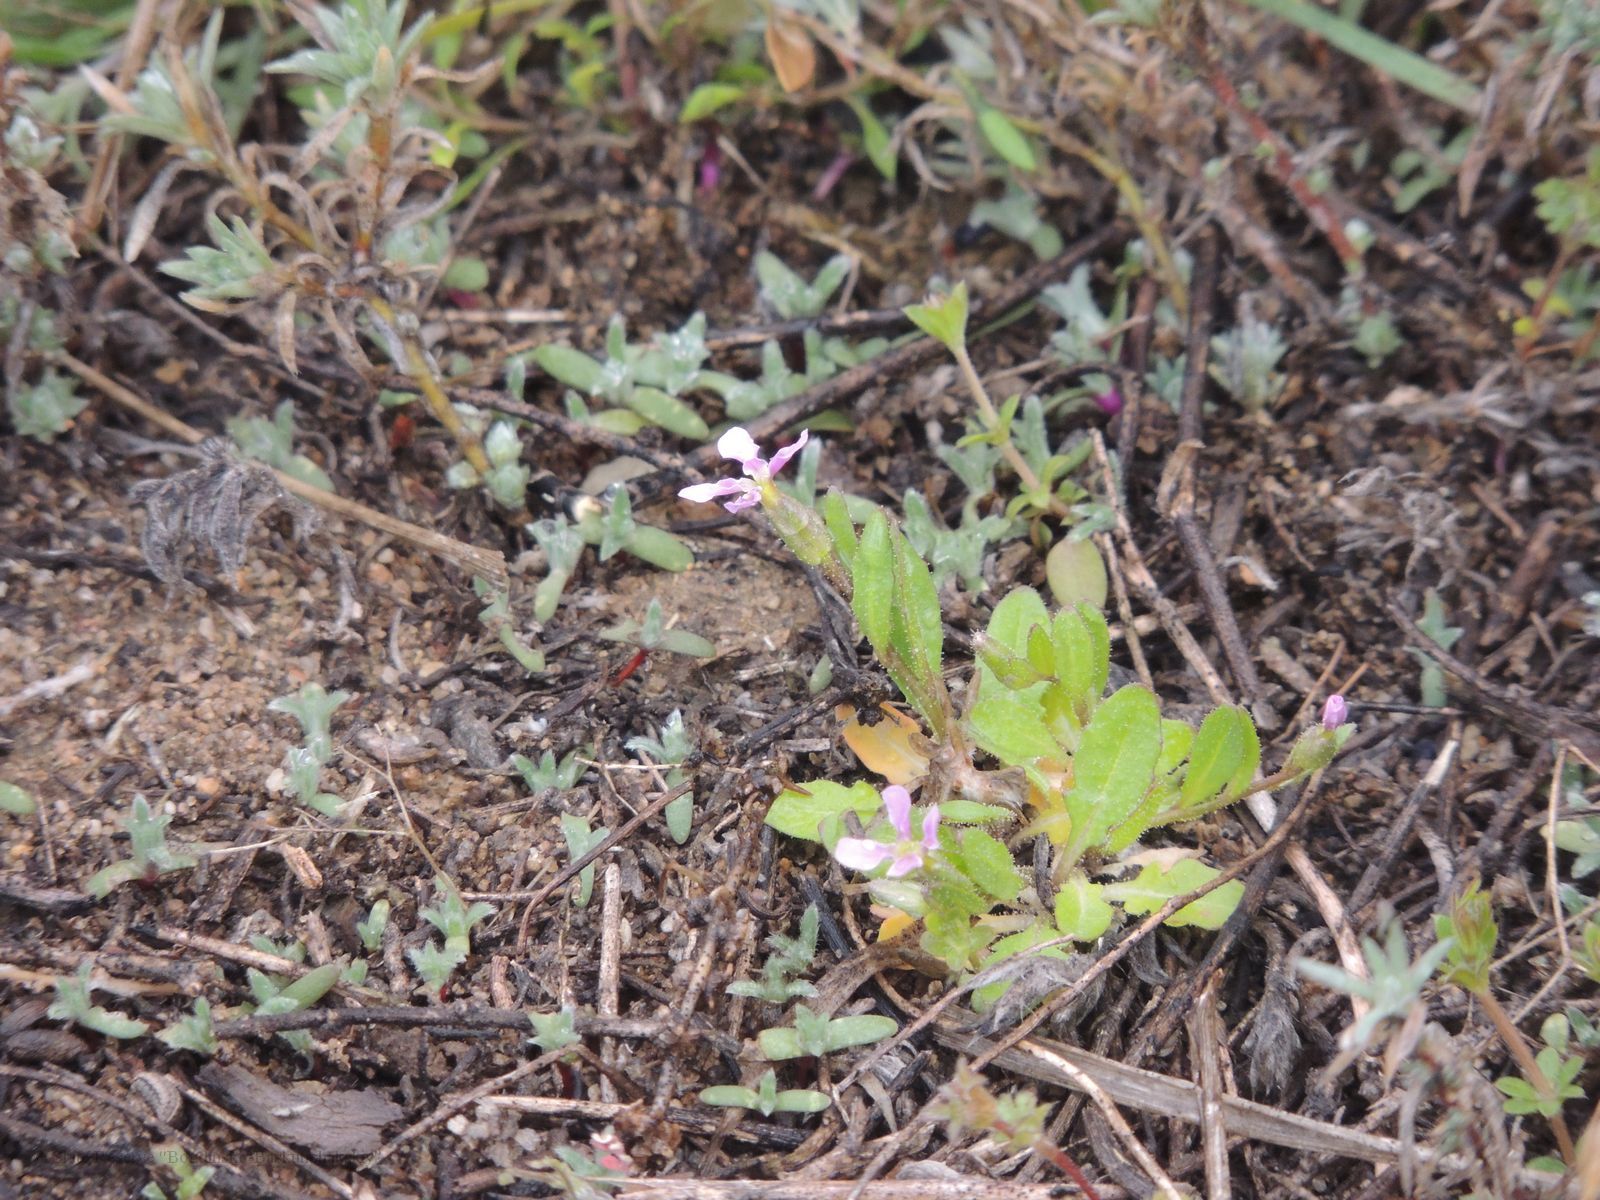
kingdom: Plantae
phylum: Tracheophyta
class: Magnoliopsida
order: Brassicales
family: Brassicaceae
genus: Chorispora
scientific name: Chorispora tenella
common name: Crossflower
